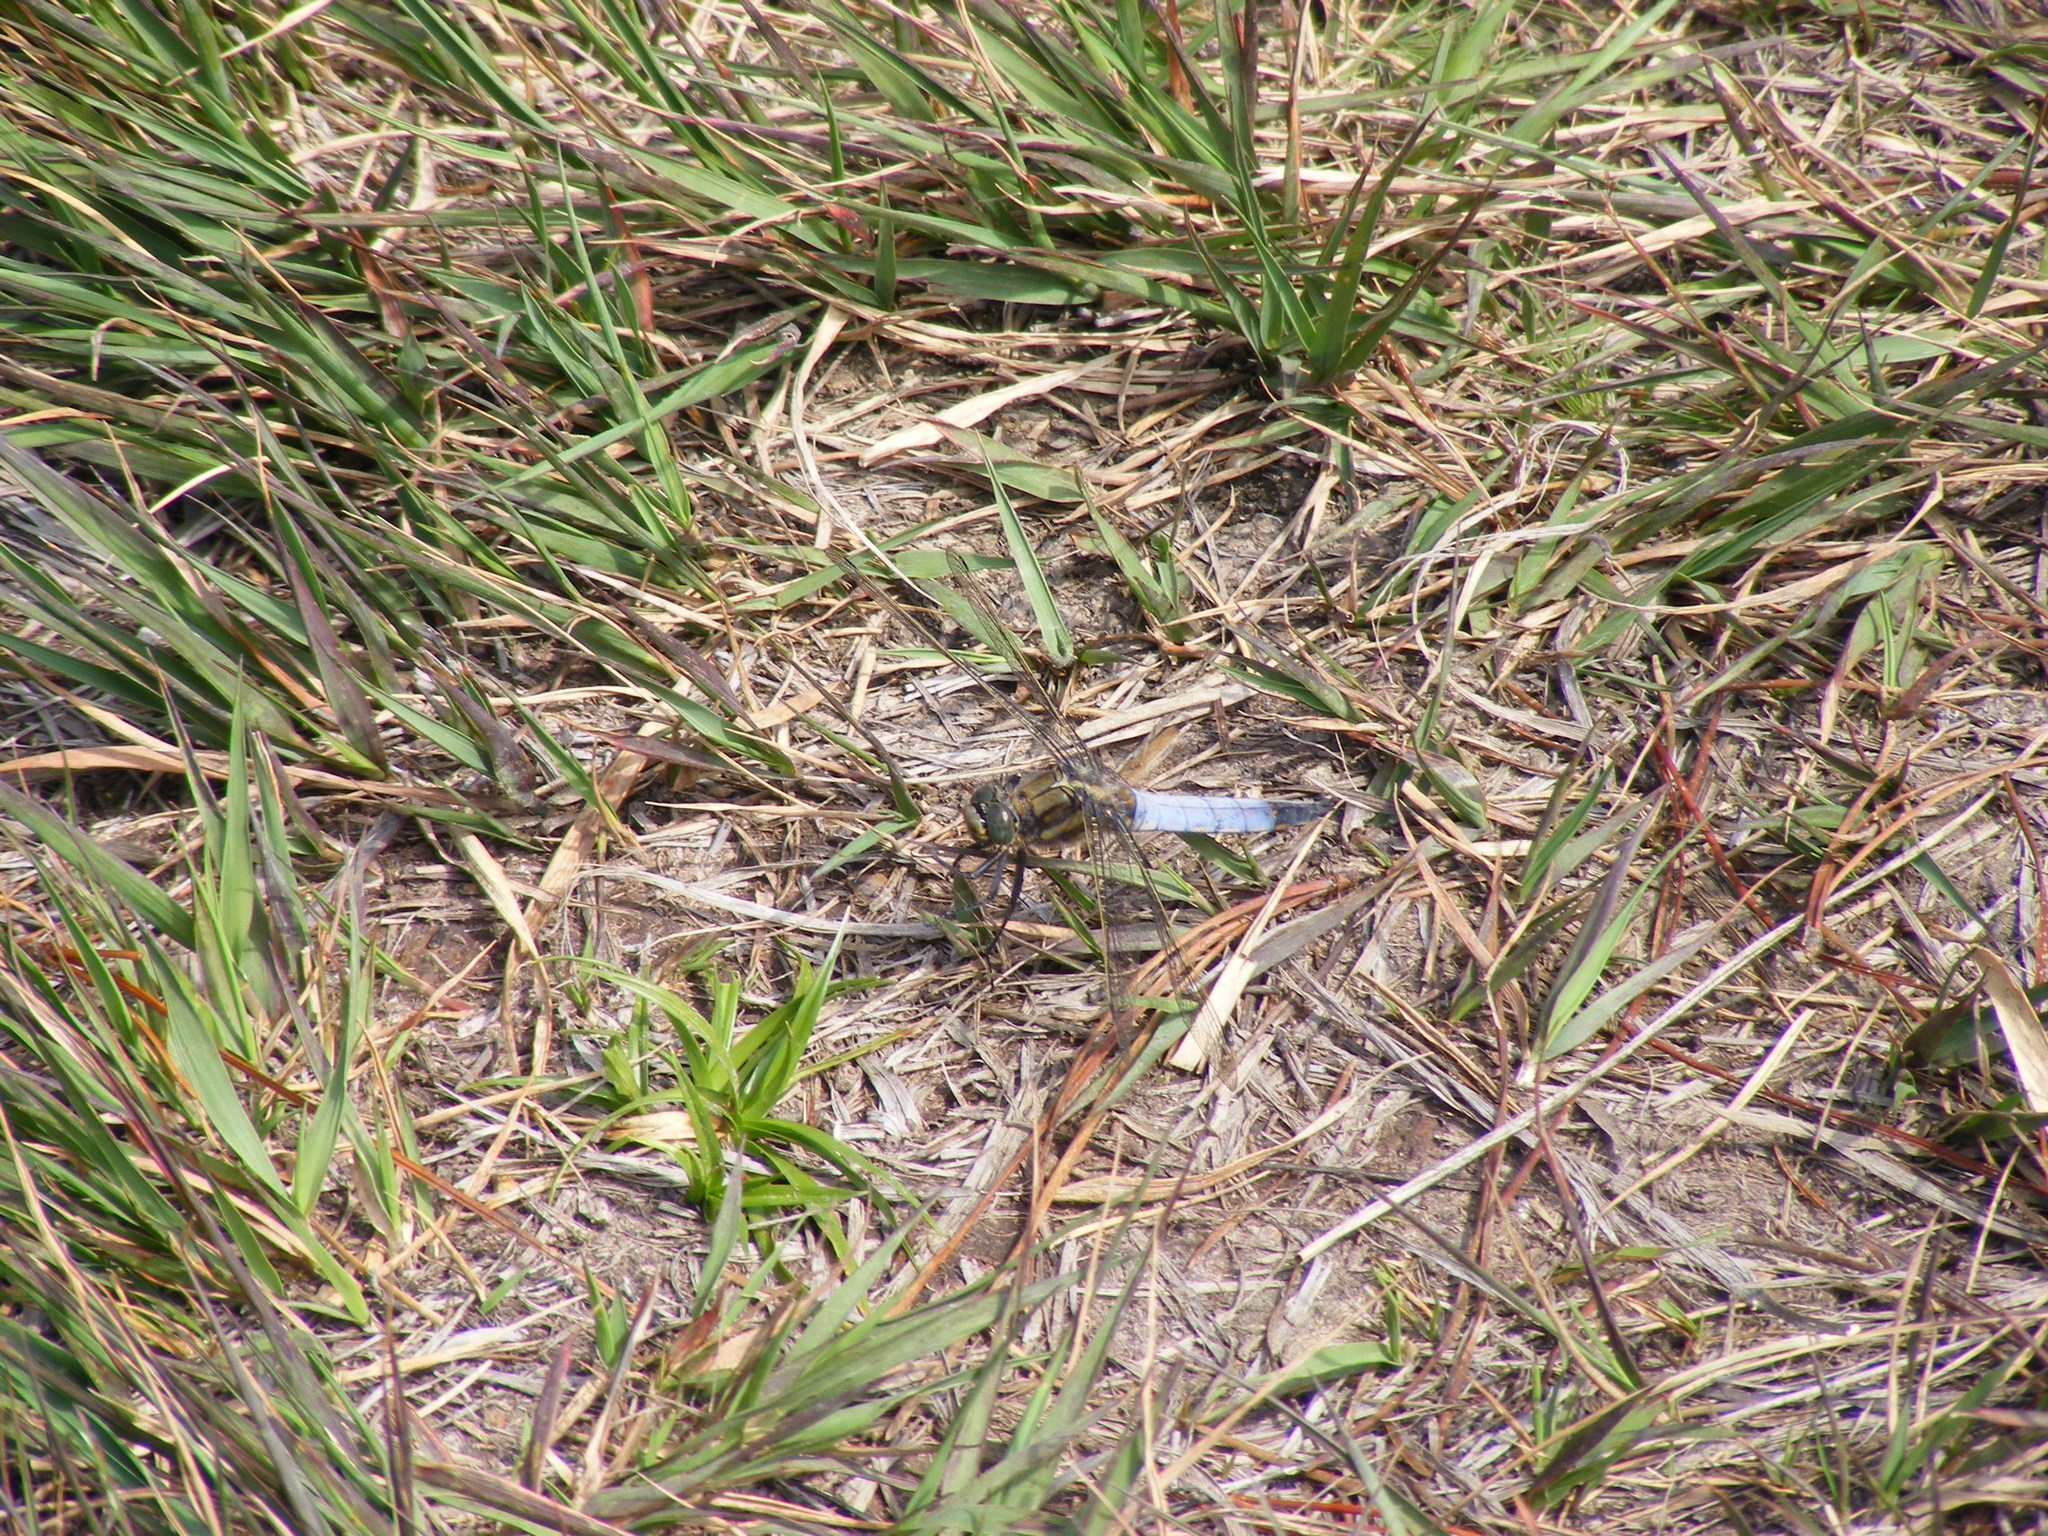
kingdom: Animalia
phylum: Arthropoda
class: Insecta
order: Odonata
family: Libellulidae
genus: Orthetrum
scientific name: Orthetrum cancellatum
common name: Black-tailed skimmer
